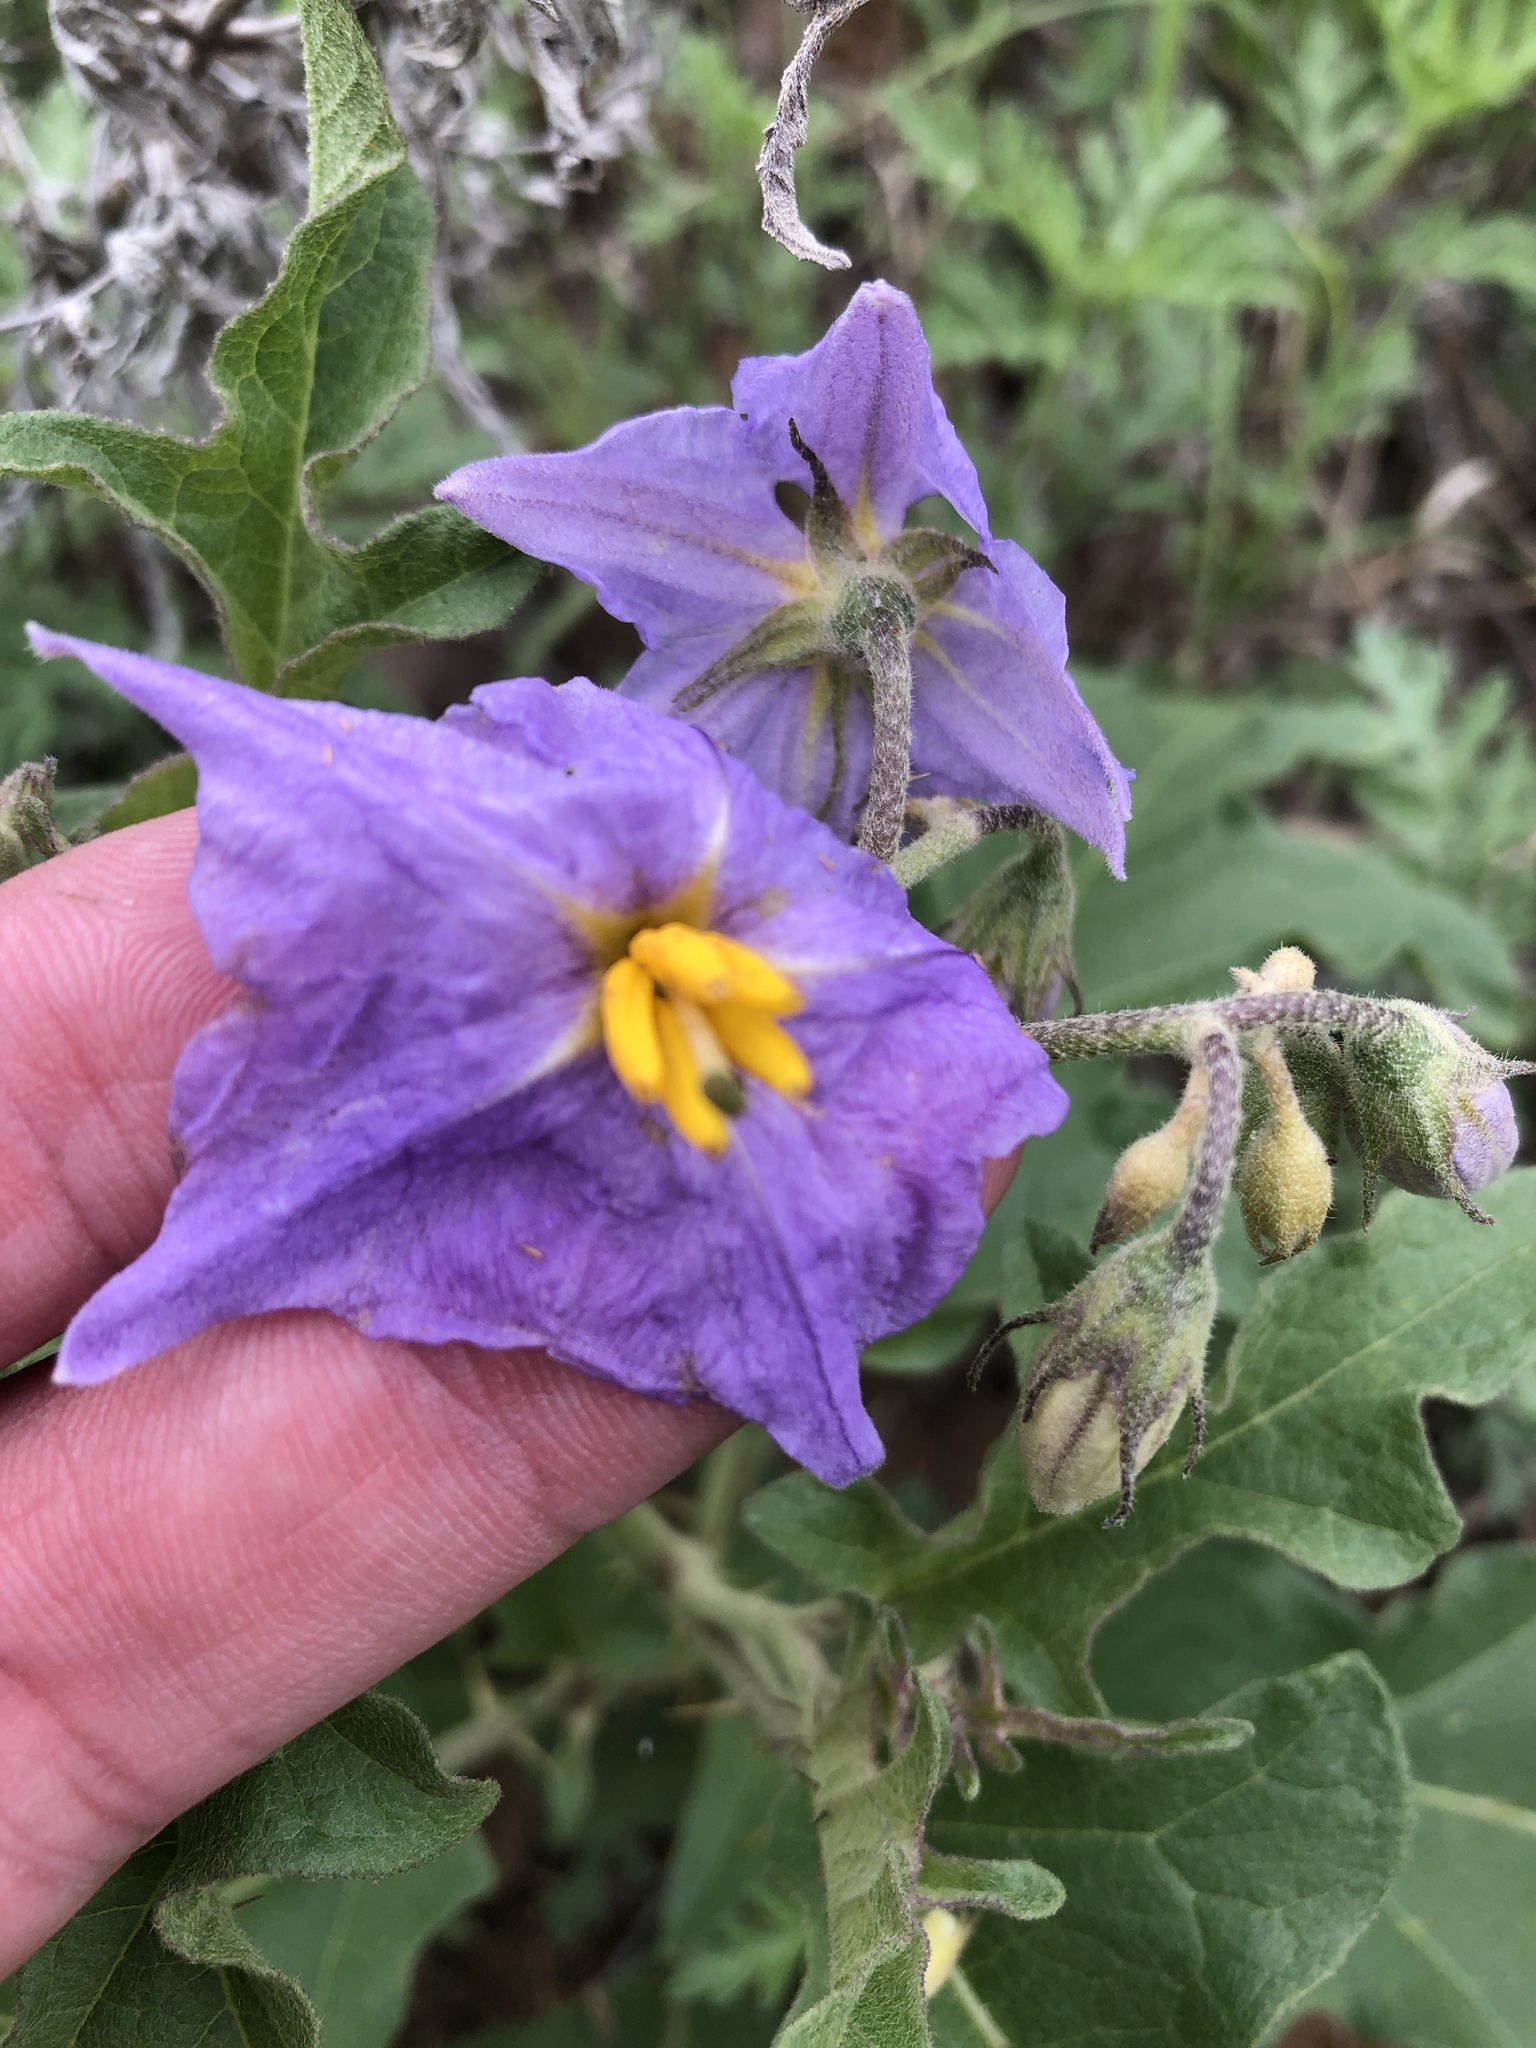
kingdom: Plantae
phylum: Tracheophyta
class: Magnoliopsida
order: Solanales
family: Solanaceae
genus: Solanum
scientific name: Solanum dimidiatum
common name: Carolina horse-nettle
